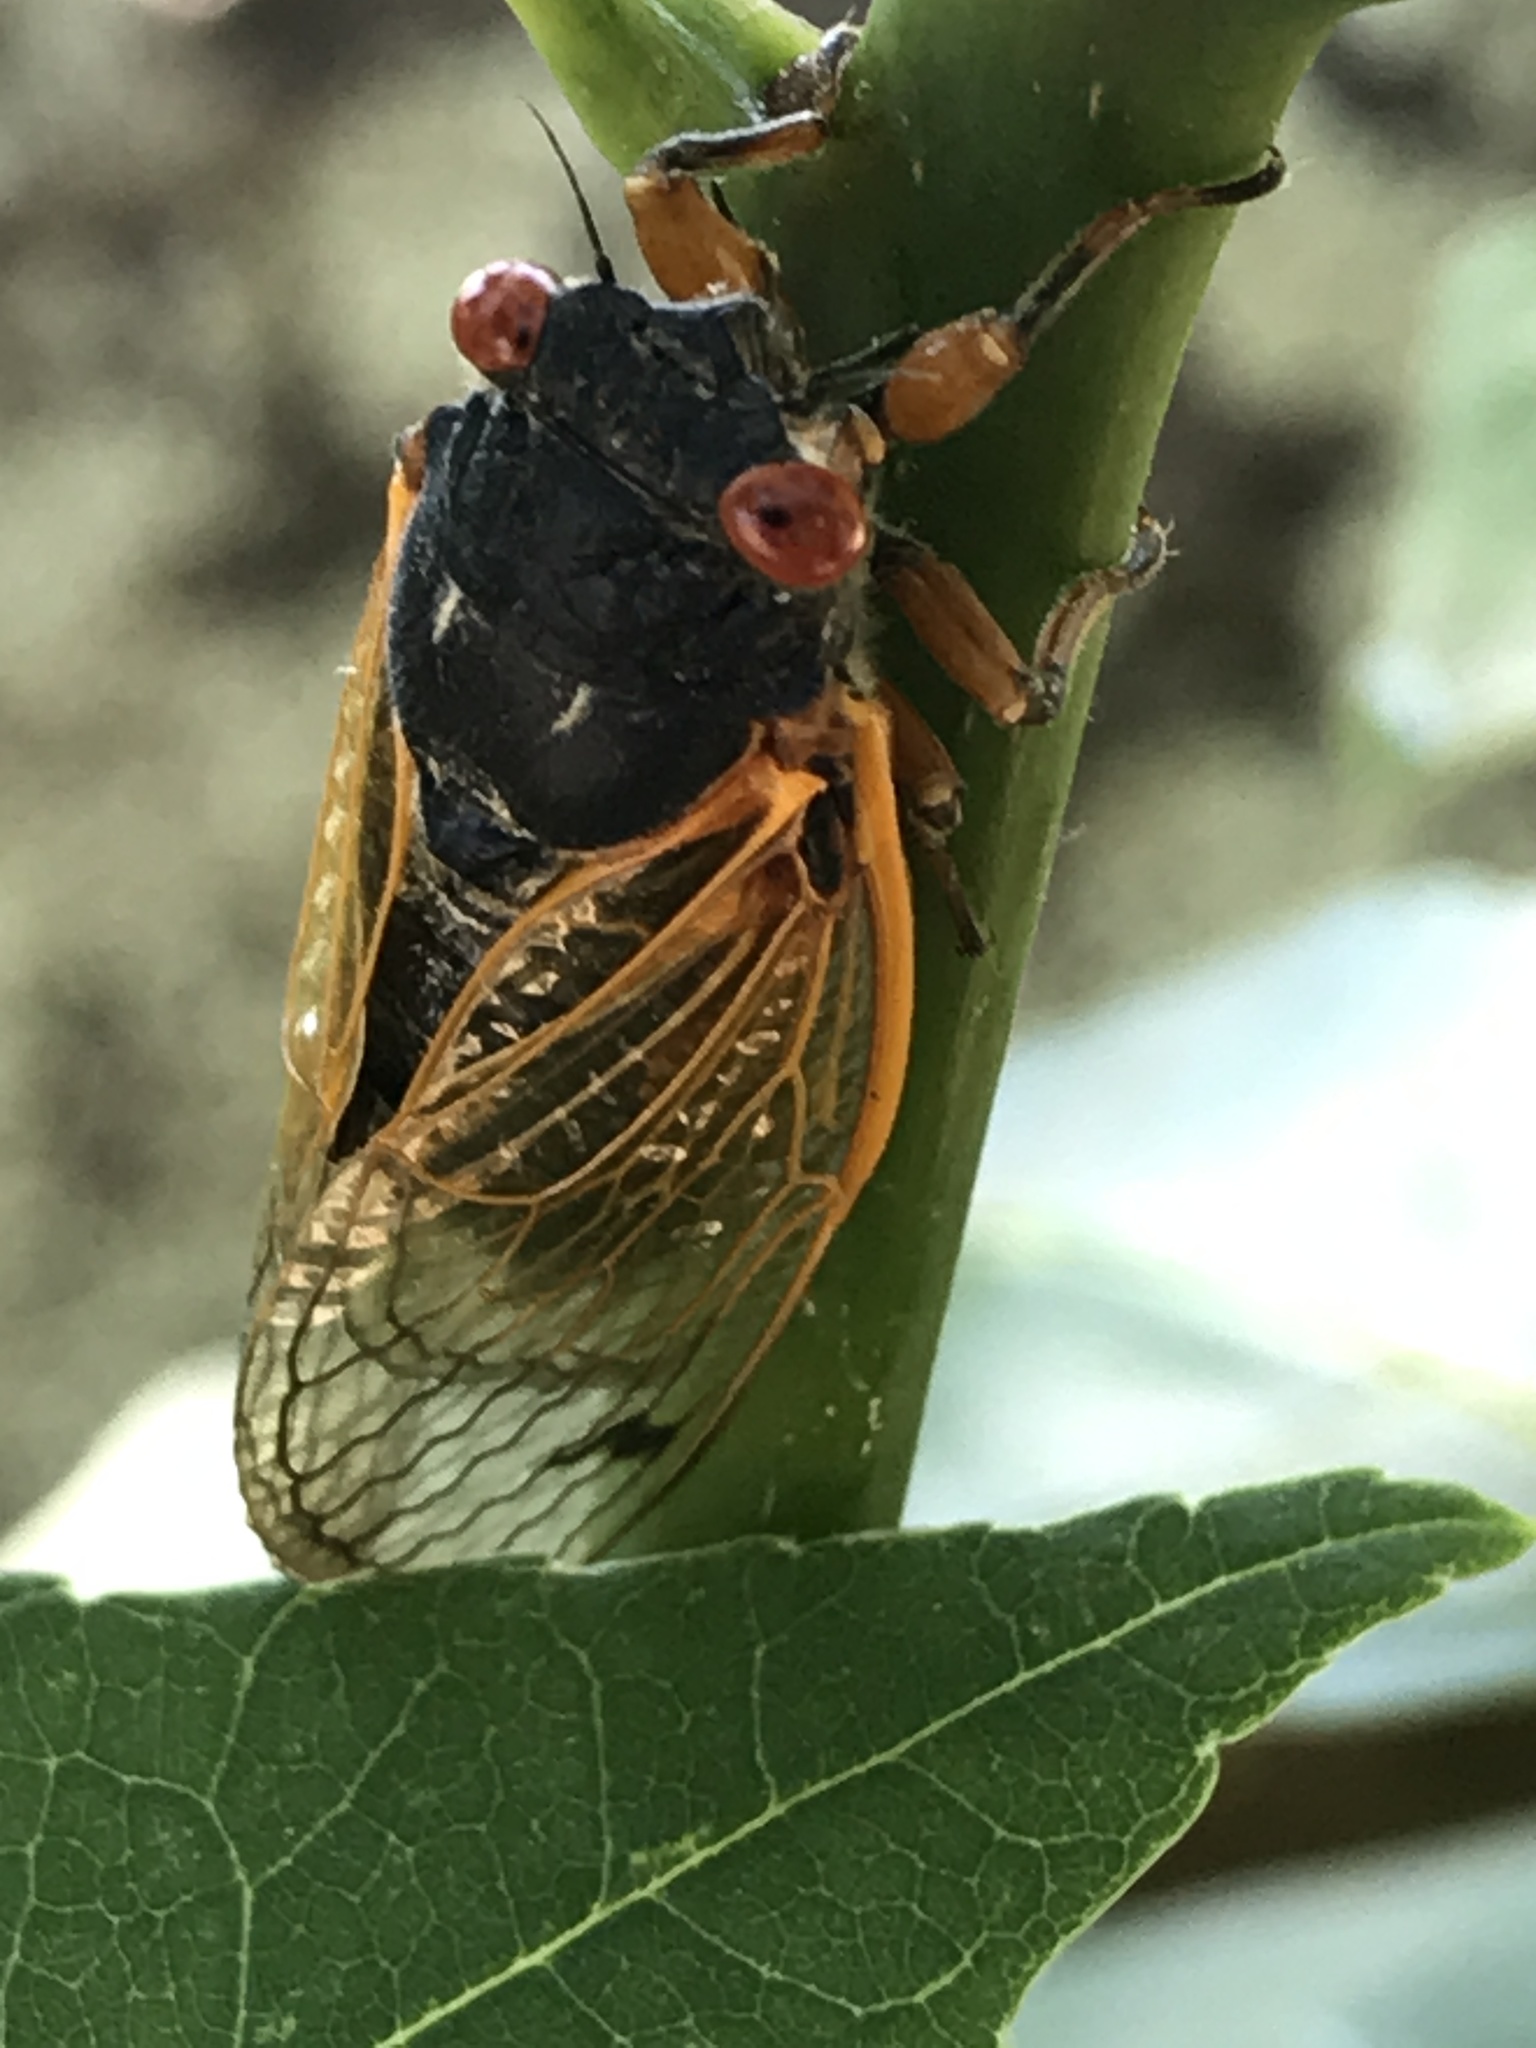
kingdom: Animalia
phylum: Arthropoda
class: Insecta
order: Hemiptera
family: Cicadidae
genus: Magicicada
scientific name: Magicicada
